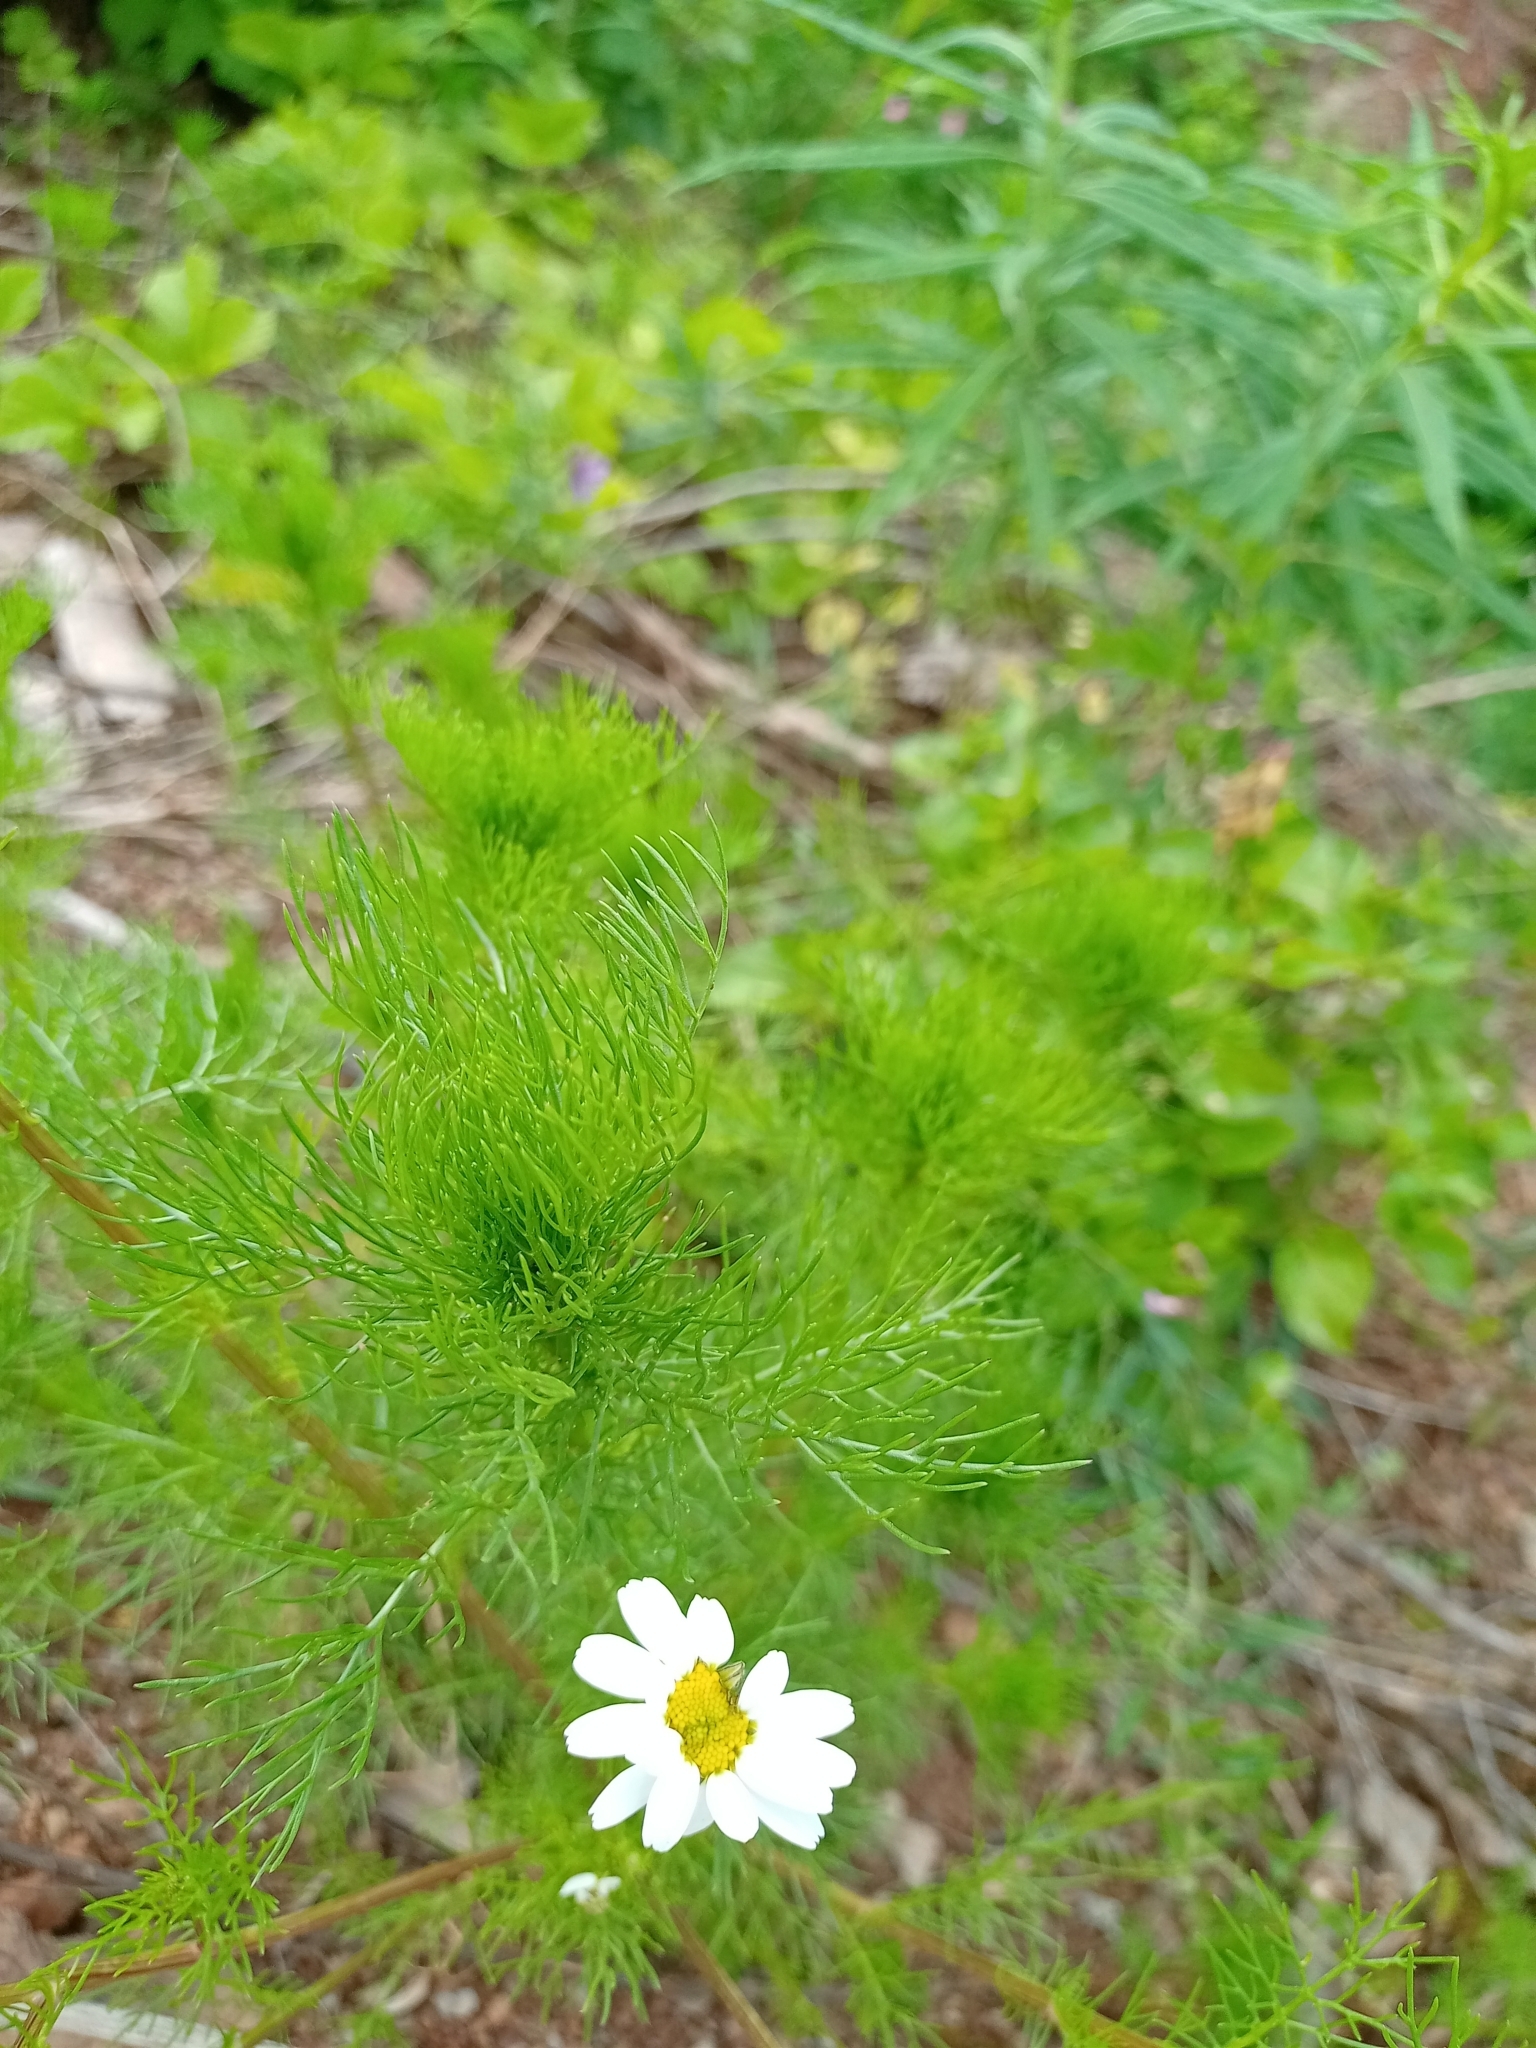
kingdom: Plantae
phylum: Tracheophyta
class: Magnoliopsida
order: Asterales
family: Asteraceae
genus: Tripleurospermum
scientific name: Tripleurospermum inodorum
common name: Scentless mayweed
